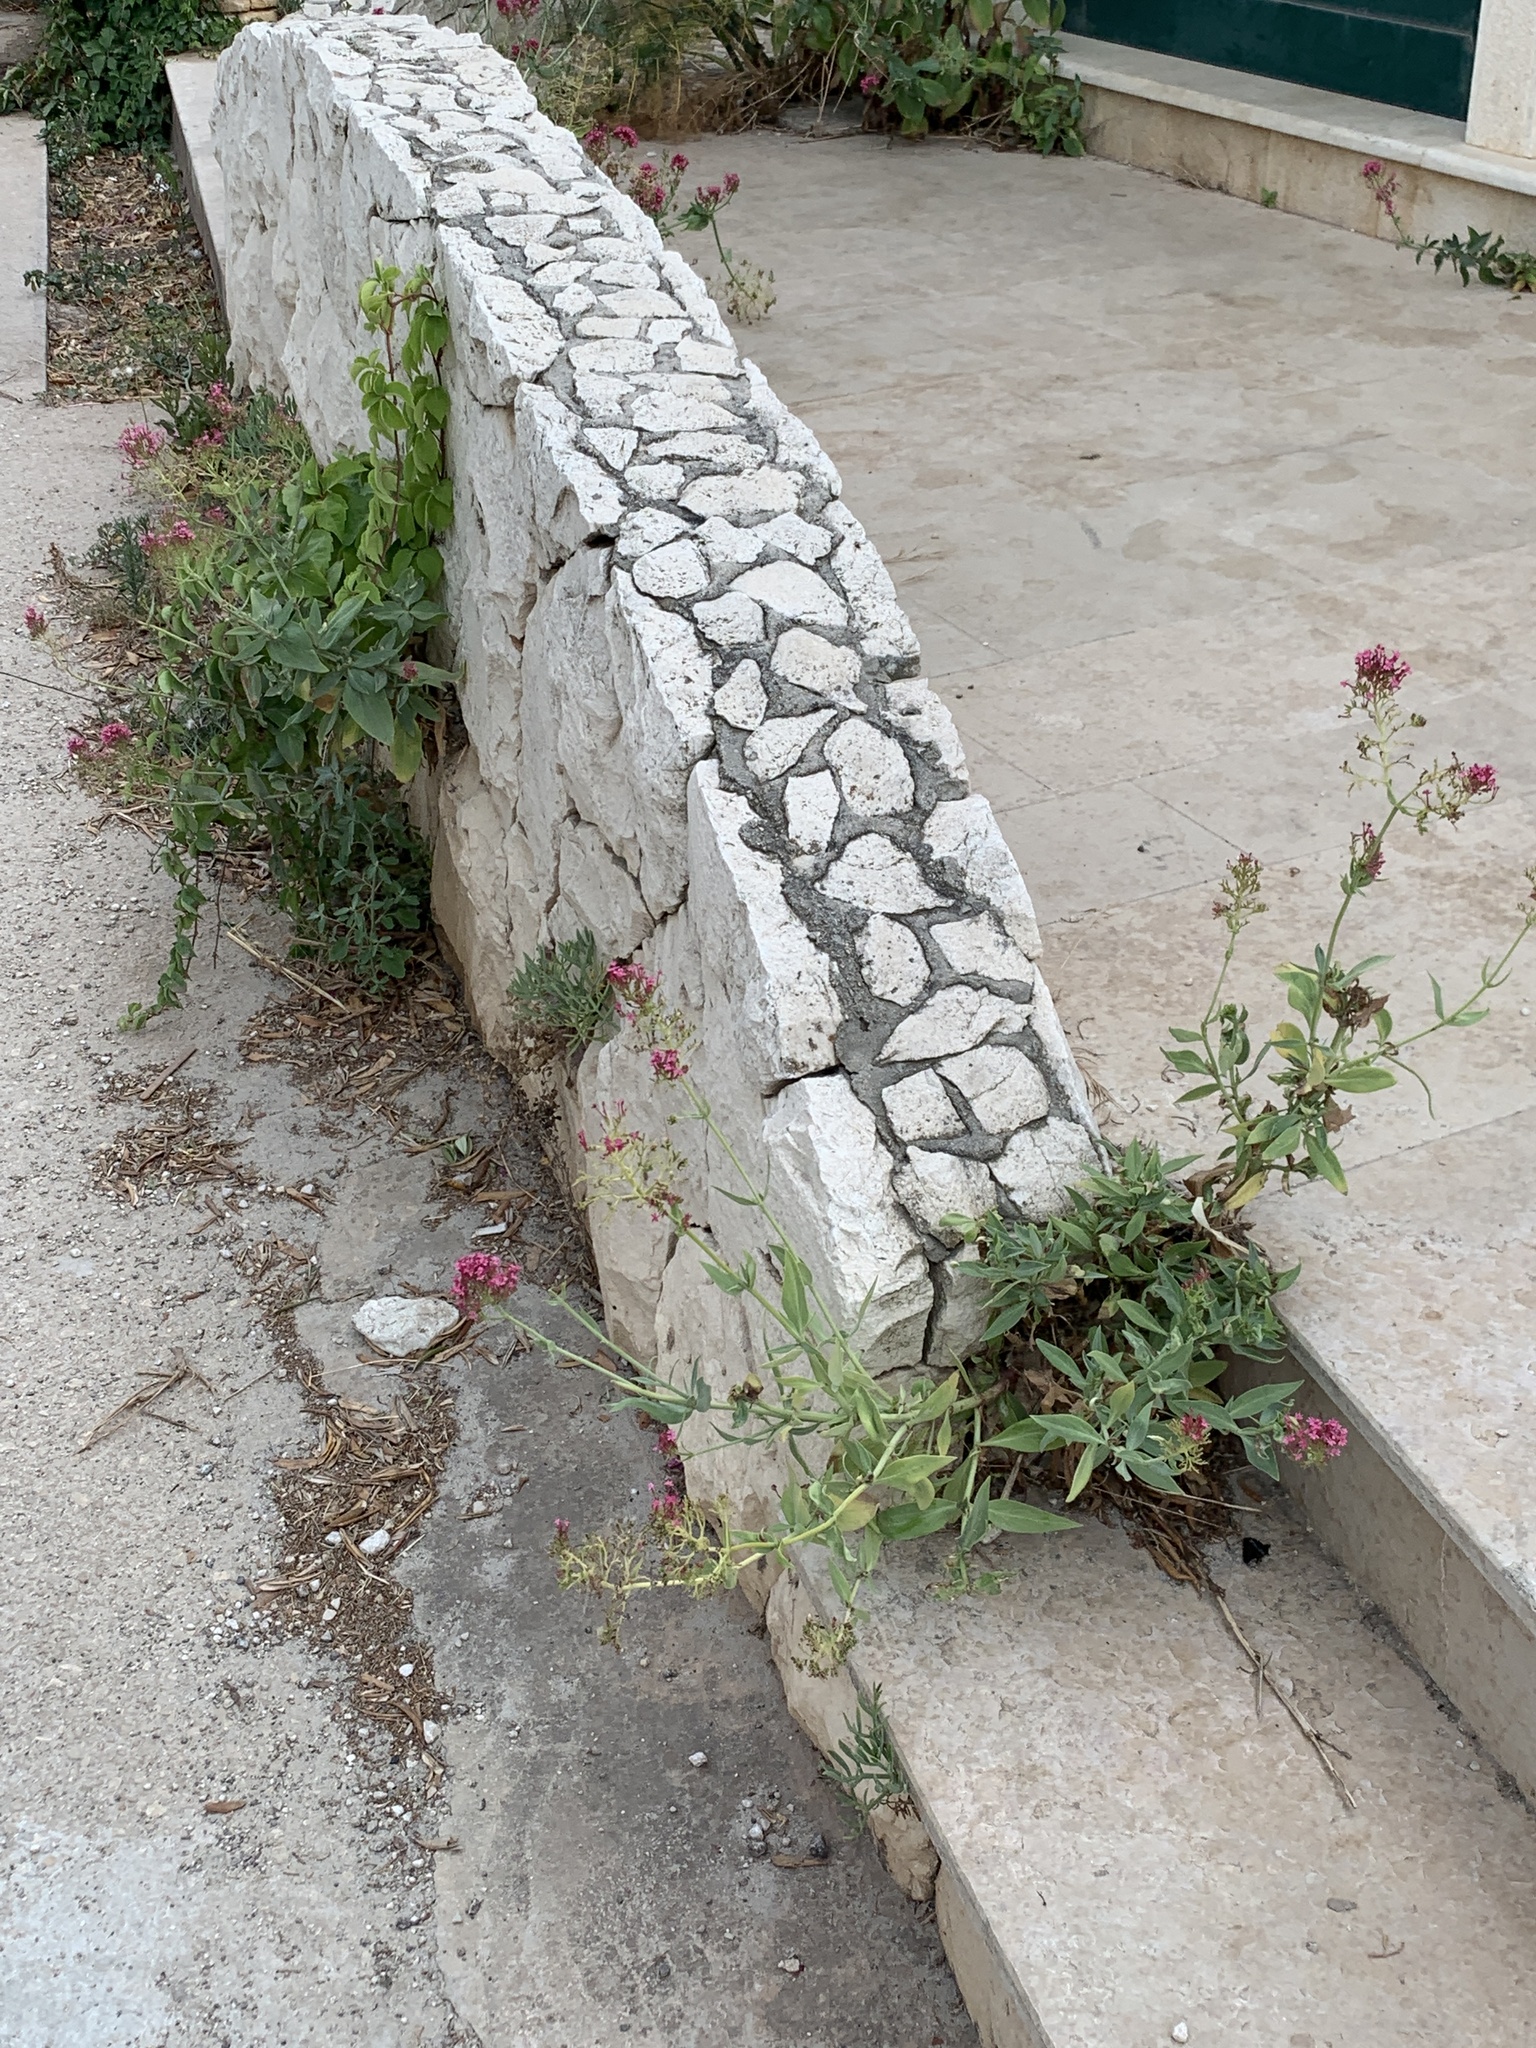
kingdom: Plantae
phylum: Tracheophyta
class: Magnoliopsida
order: Dipsacales
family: Caprifoliaceae
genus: Centranthus
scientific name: Centranthus ruber
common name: Red valerian
